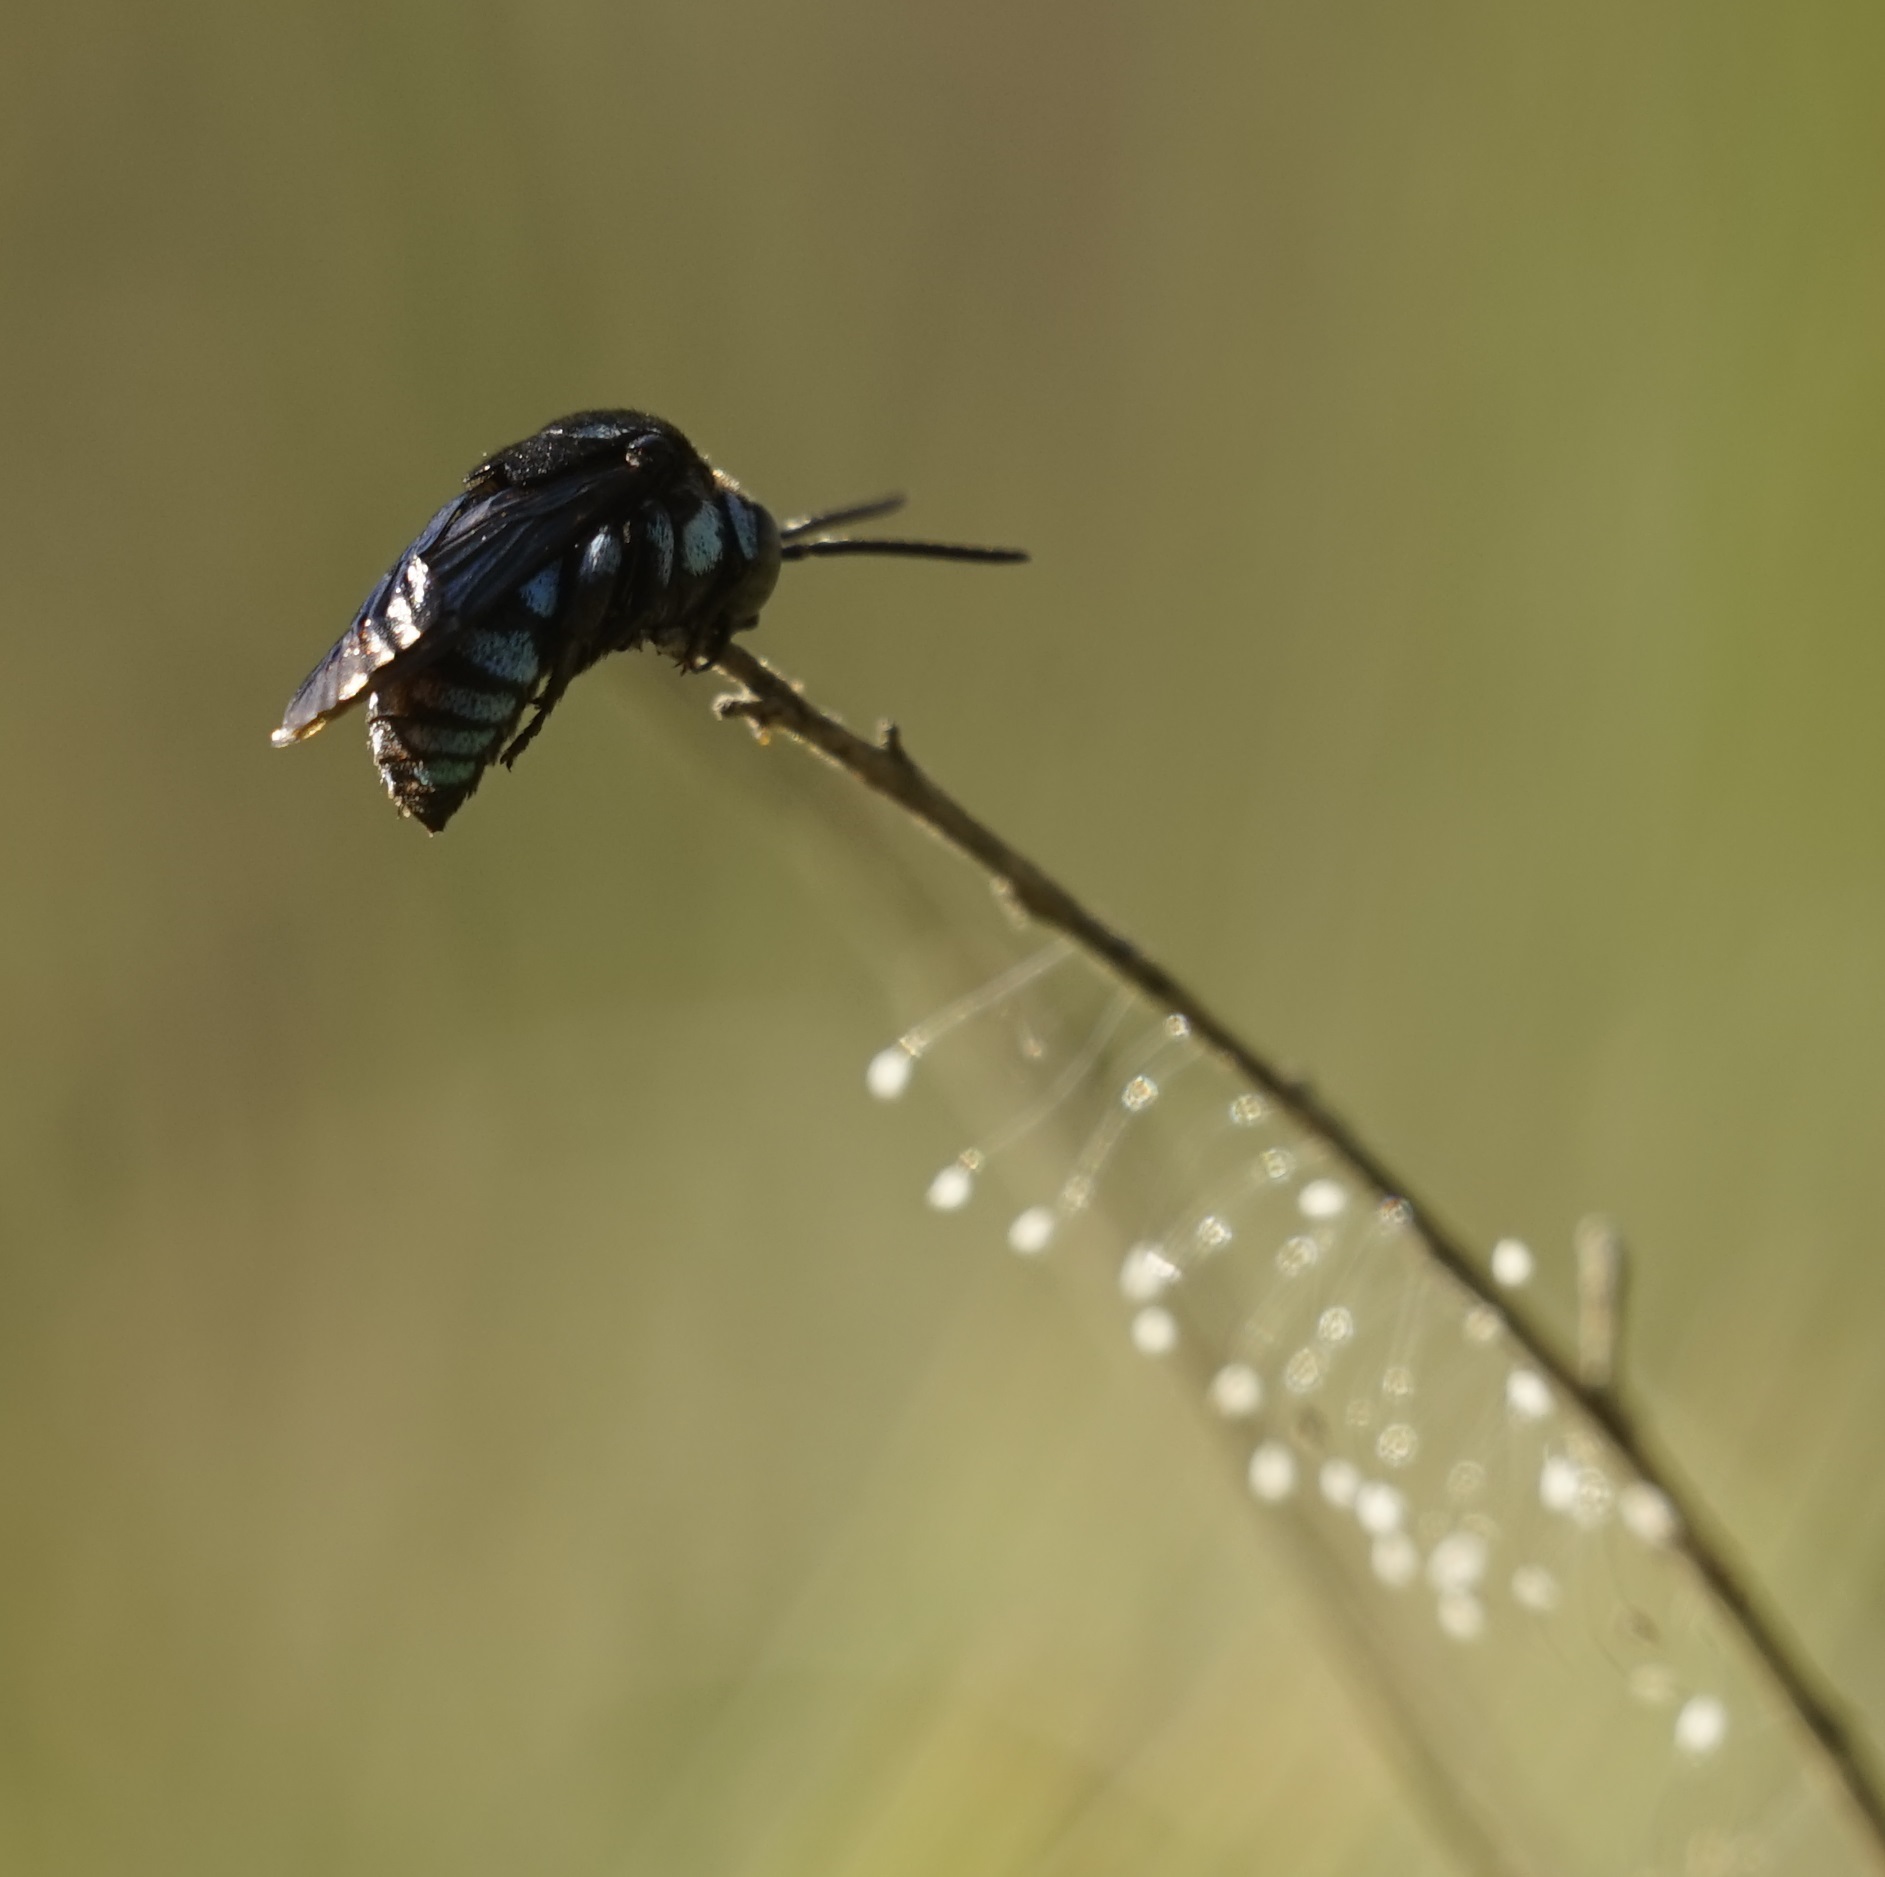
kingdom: Animalia
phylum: Arthropoda
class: Insecta
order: Hymenoptera
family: Apidae
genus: Thyreus
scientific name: Thyreus nitidulus
